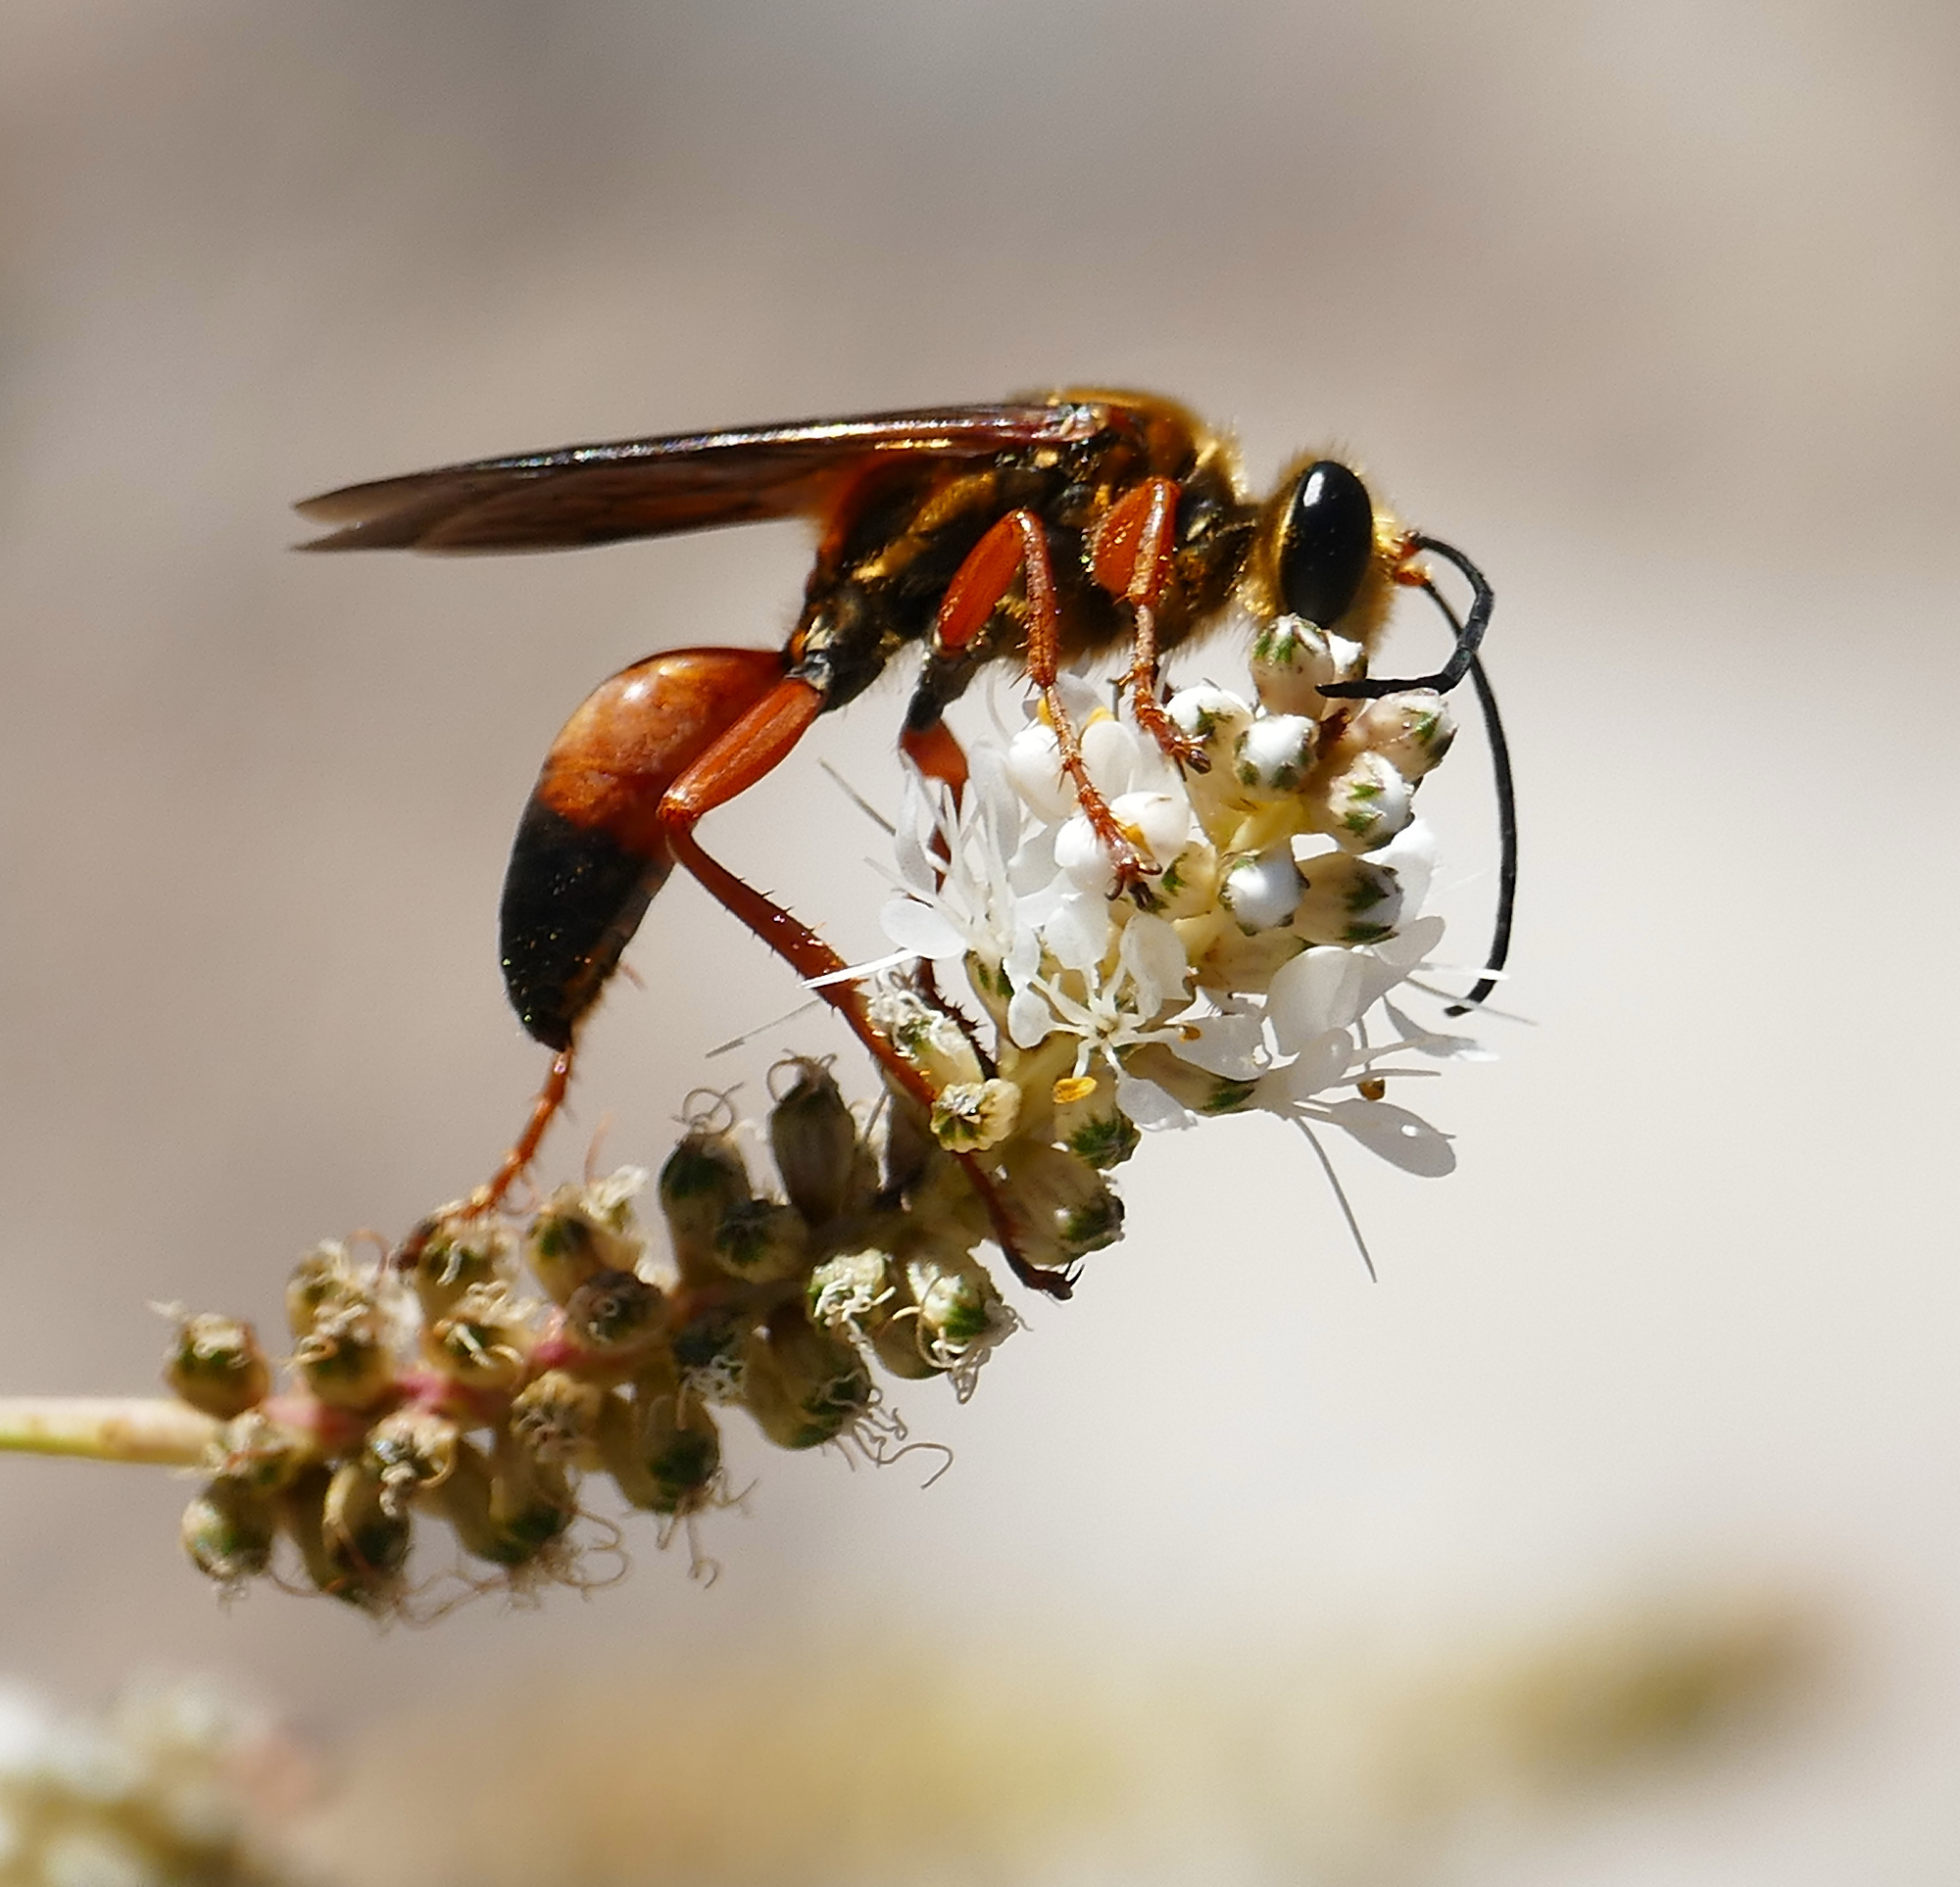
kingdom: Animalia
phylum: Arthropoda
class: Insecta
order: Hymenoptera
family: Sphecidae
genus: Sphex
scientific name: Sphex ichneumoneus
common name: Great golden digger wasp
